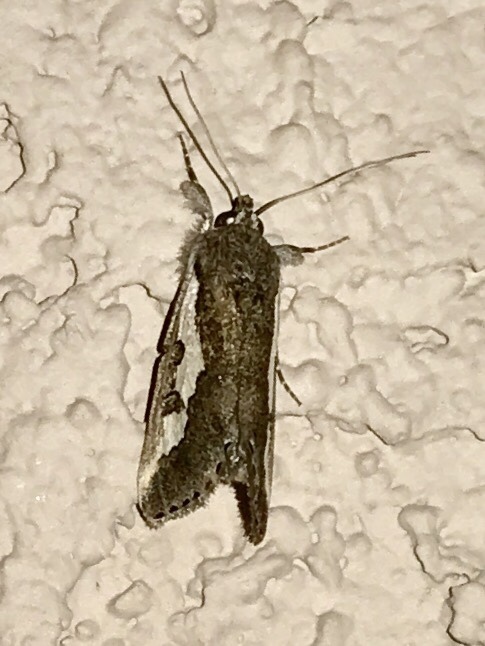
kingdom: Animalia
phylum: Arthropoda
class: Insecta
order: Lepidoptera
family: Noctuidae
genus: Euscirrhopterus
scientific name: Euscirrhopterus gloveri
